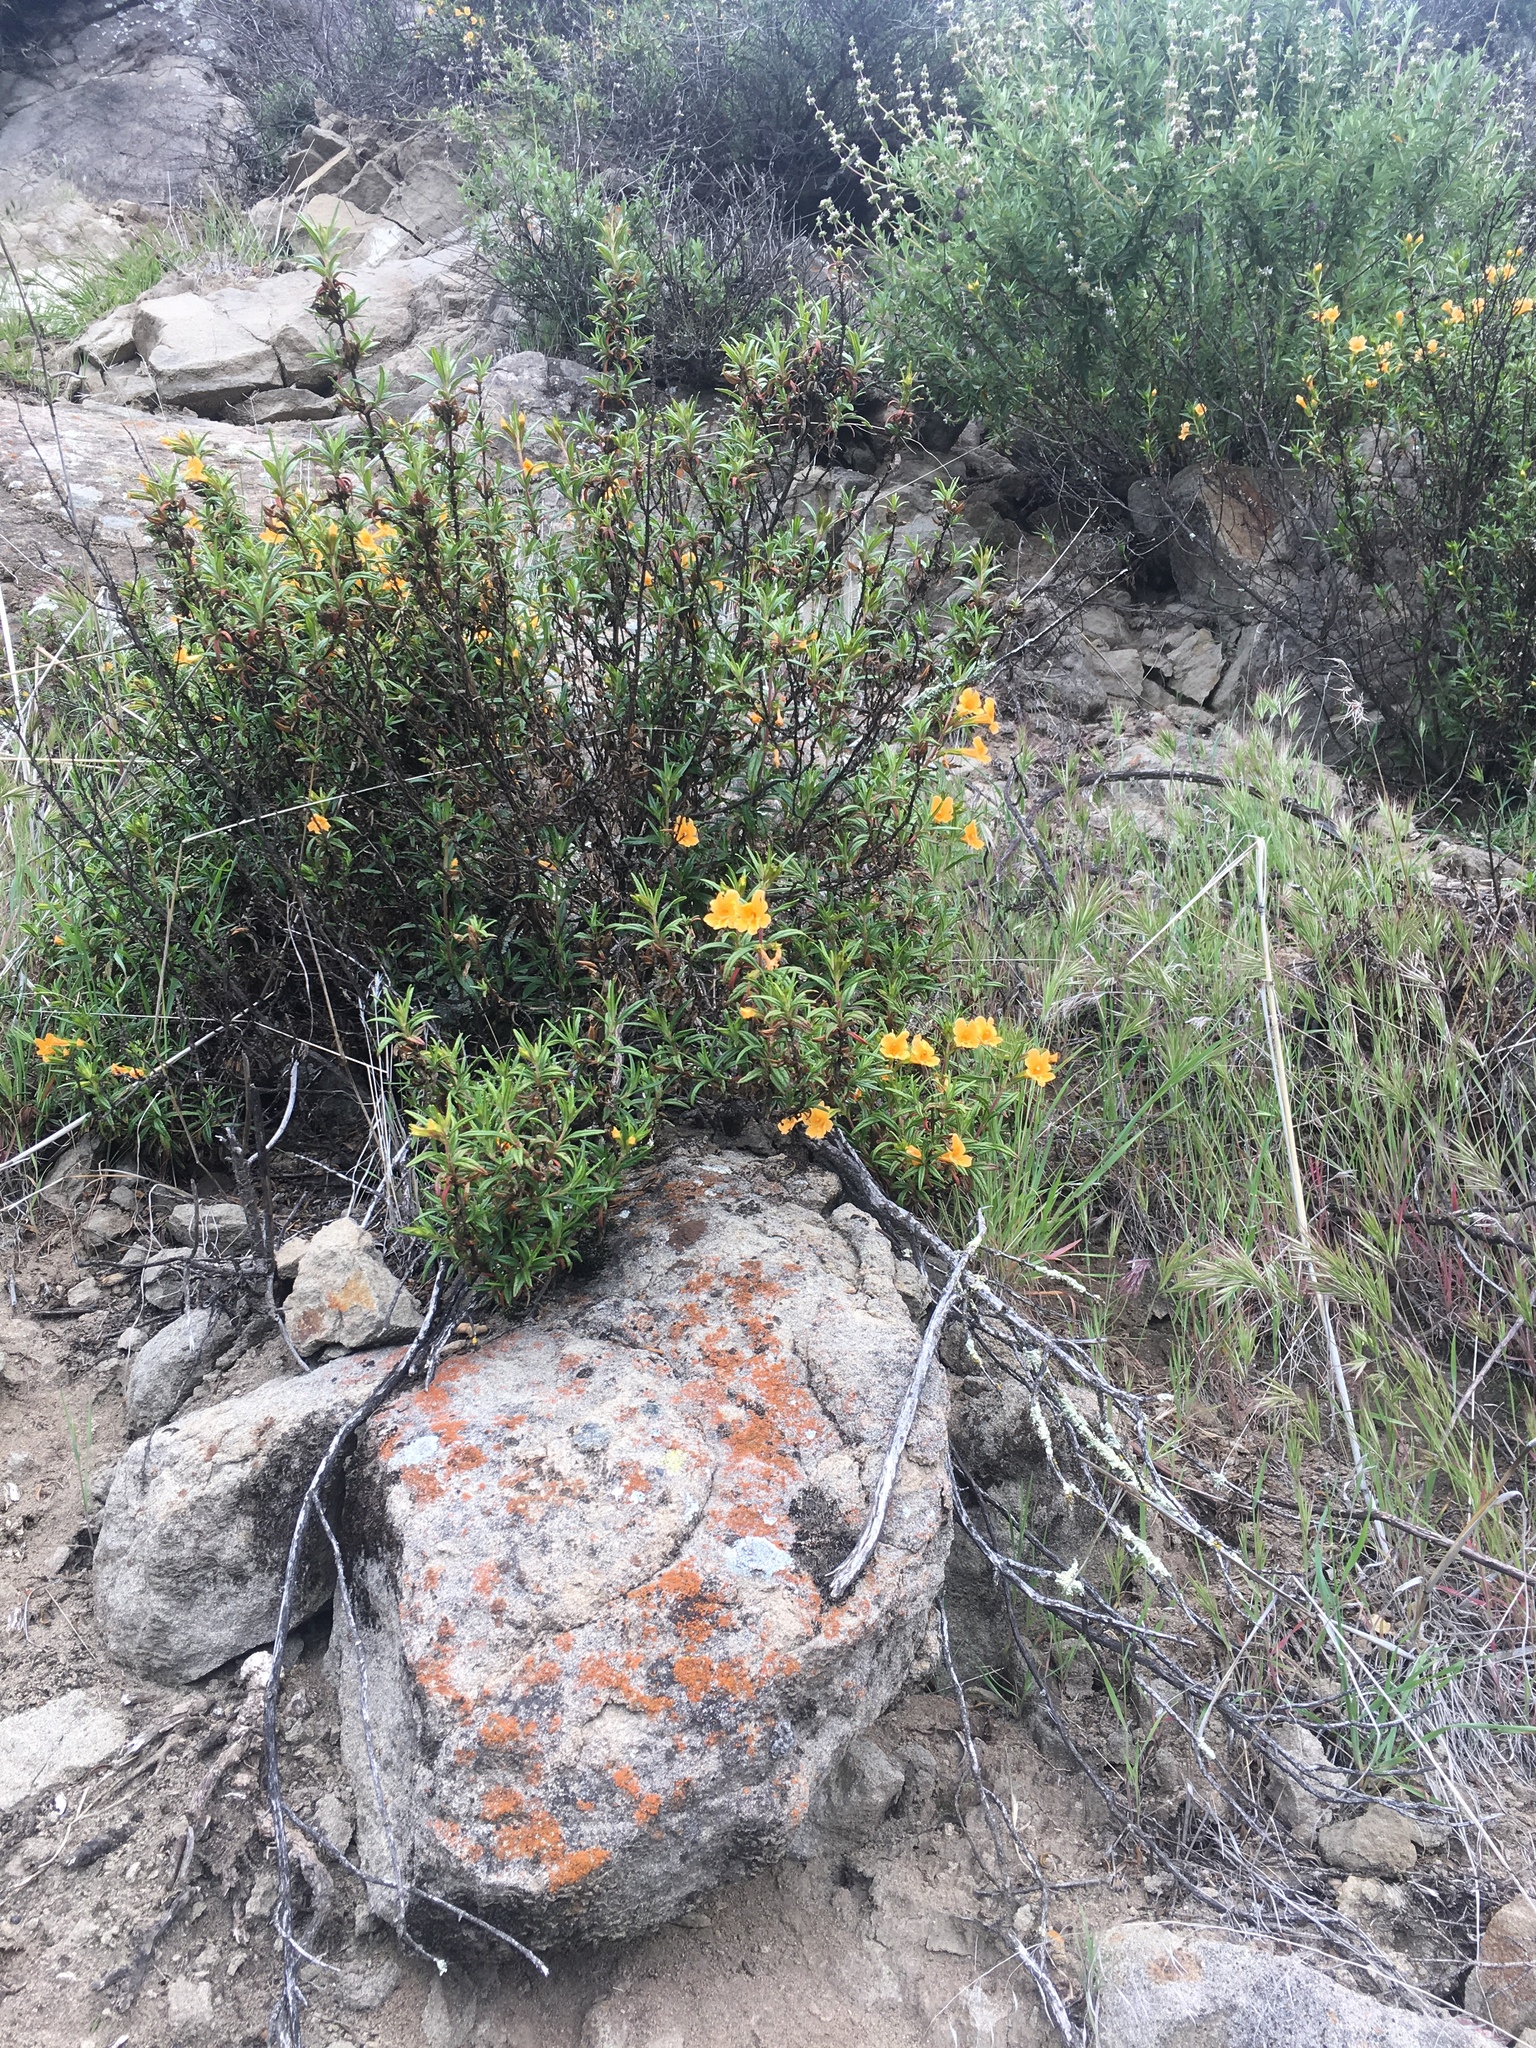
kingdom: Plantae
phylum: Tracheophyta
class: Magnoliopsida
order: Lamiales
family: Phrymaceae
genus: Diplacus
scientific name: Diplacus aurantiacus
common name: Bush monkey-flower
